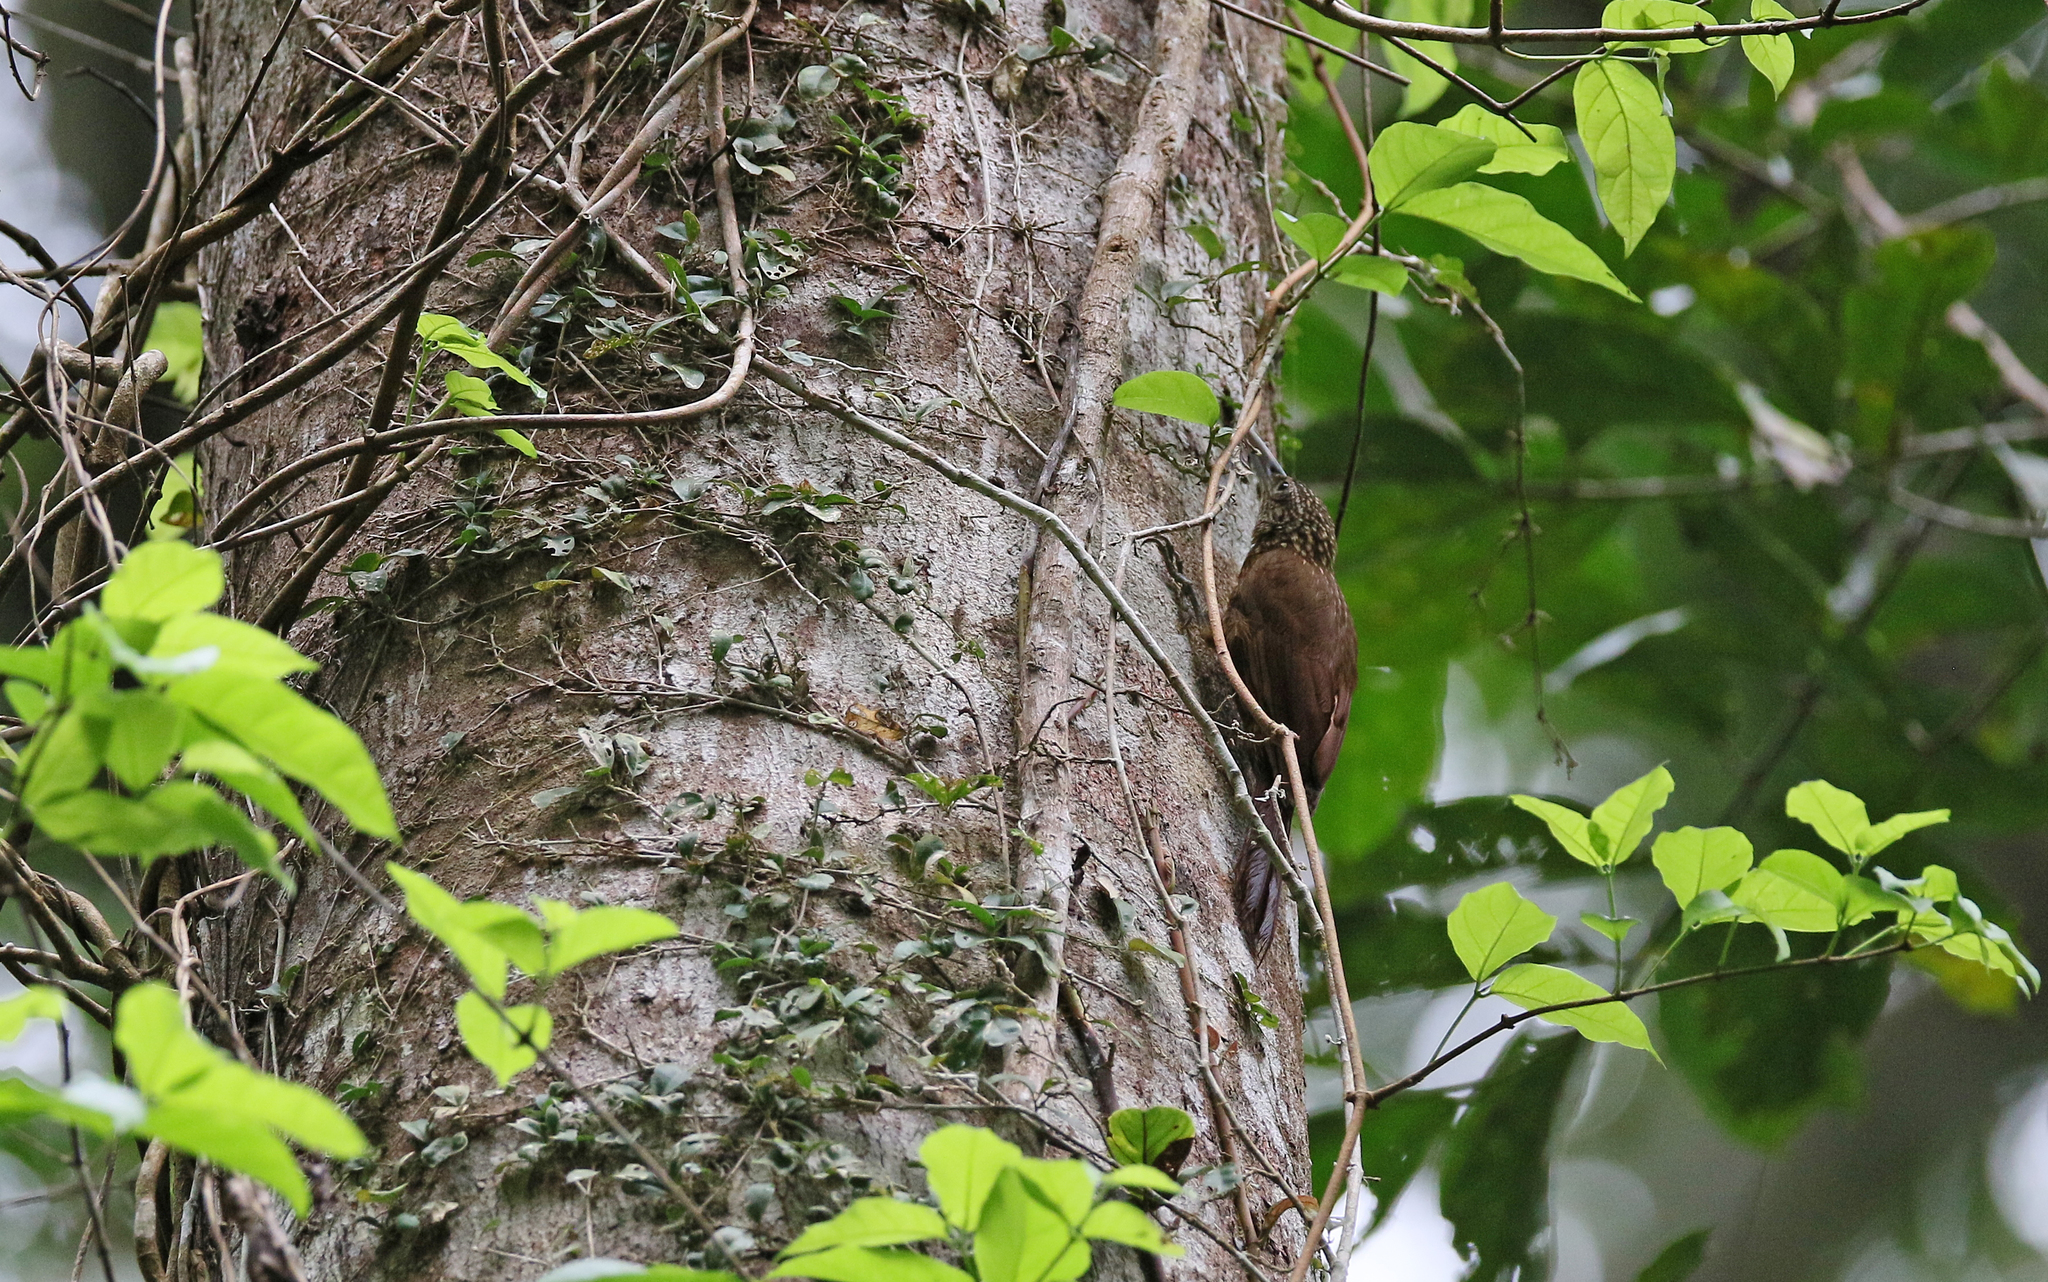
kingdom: Animalia
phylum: Chordata
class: Aves
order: Passeriformes
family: Furnariidae
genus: Xiphorhynchus
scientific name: Xiphorhynchus guttatus
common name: Buff-throated woodcreeper
